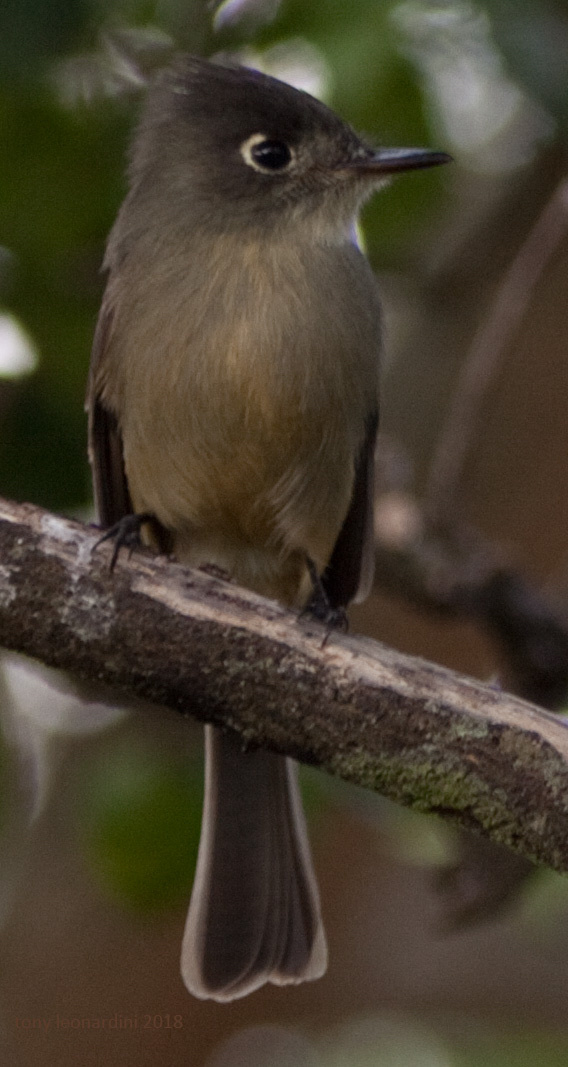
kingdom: Animalia
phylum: Chordata
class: Aves
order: Passeriformes
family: Tyrannidae
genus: Contopus
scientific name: Contopus caribaeus
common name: Cuban pewee
